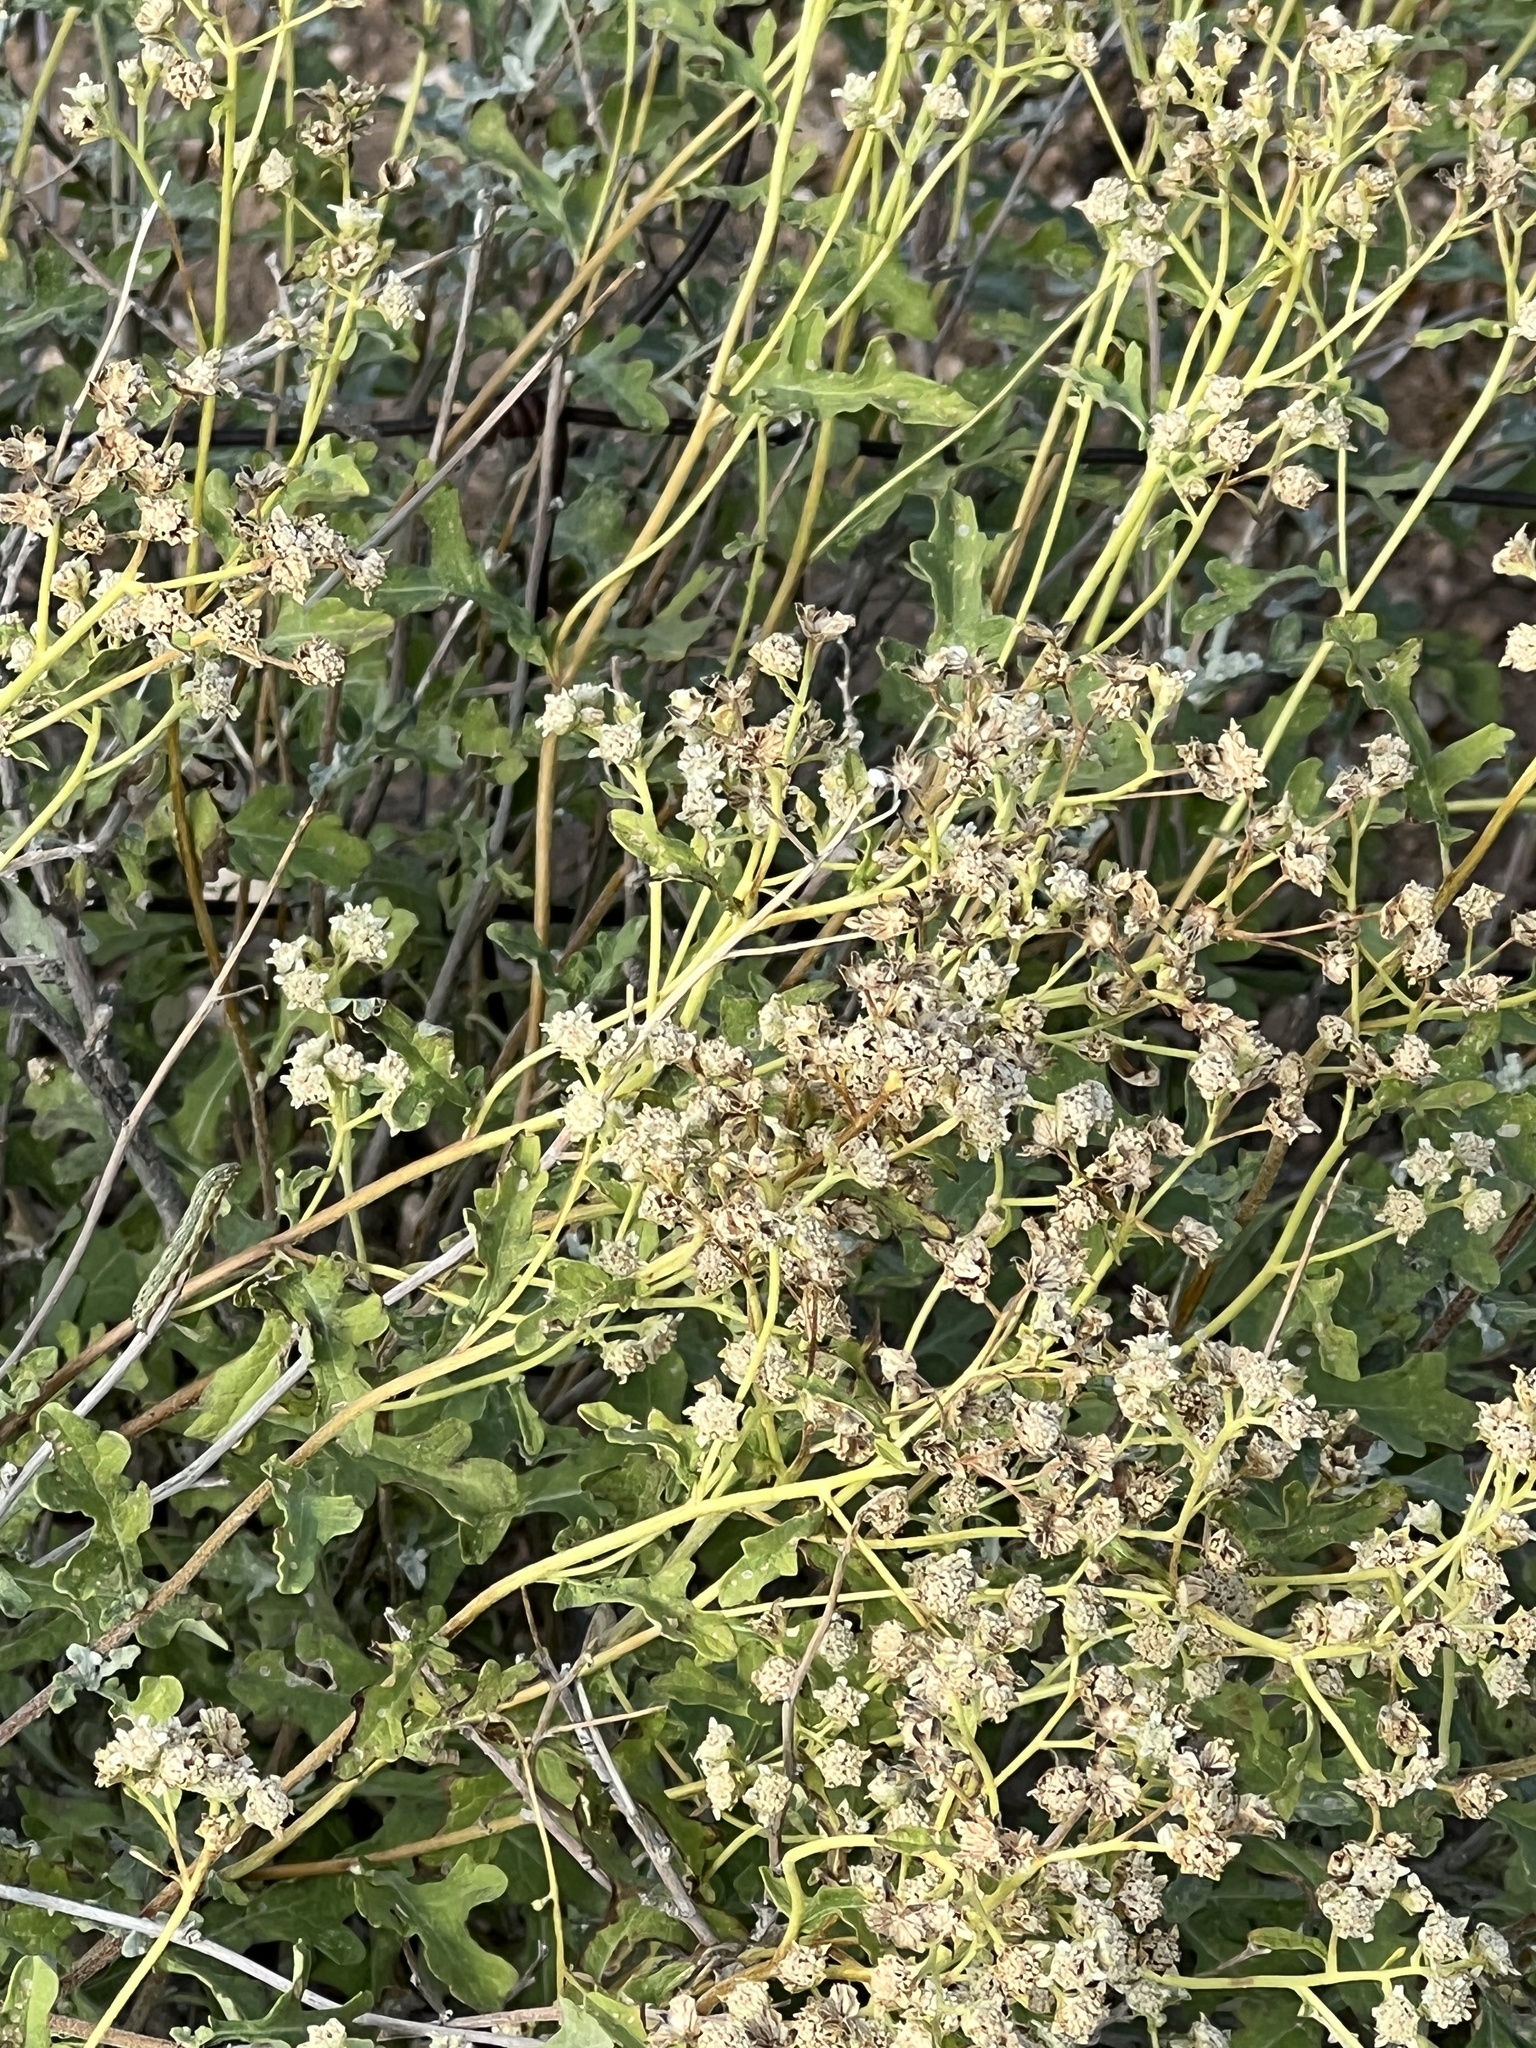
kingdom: Plantae
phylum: Tracheophyta
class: Magnoliopsida
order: Asterales
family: Asteraceae
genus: Parthenium
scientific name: Parthenium incanum
